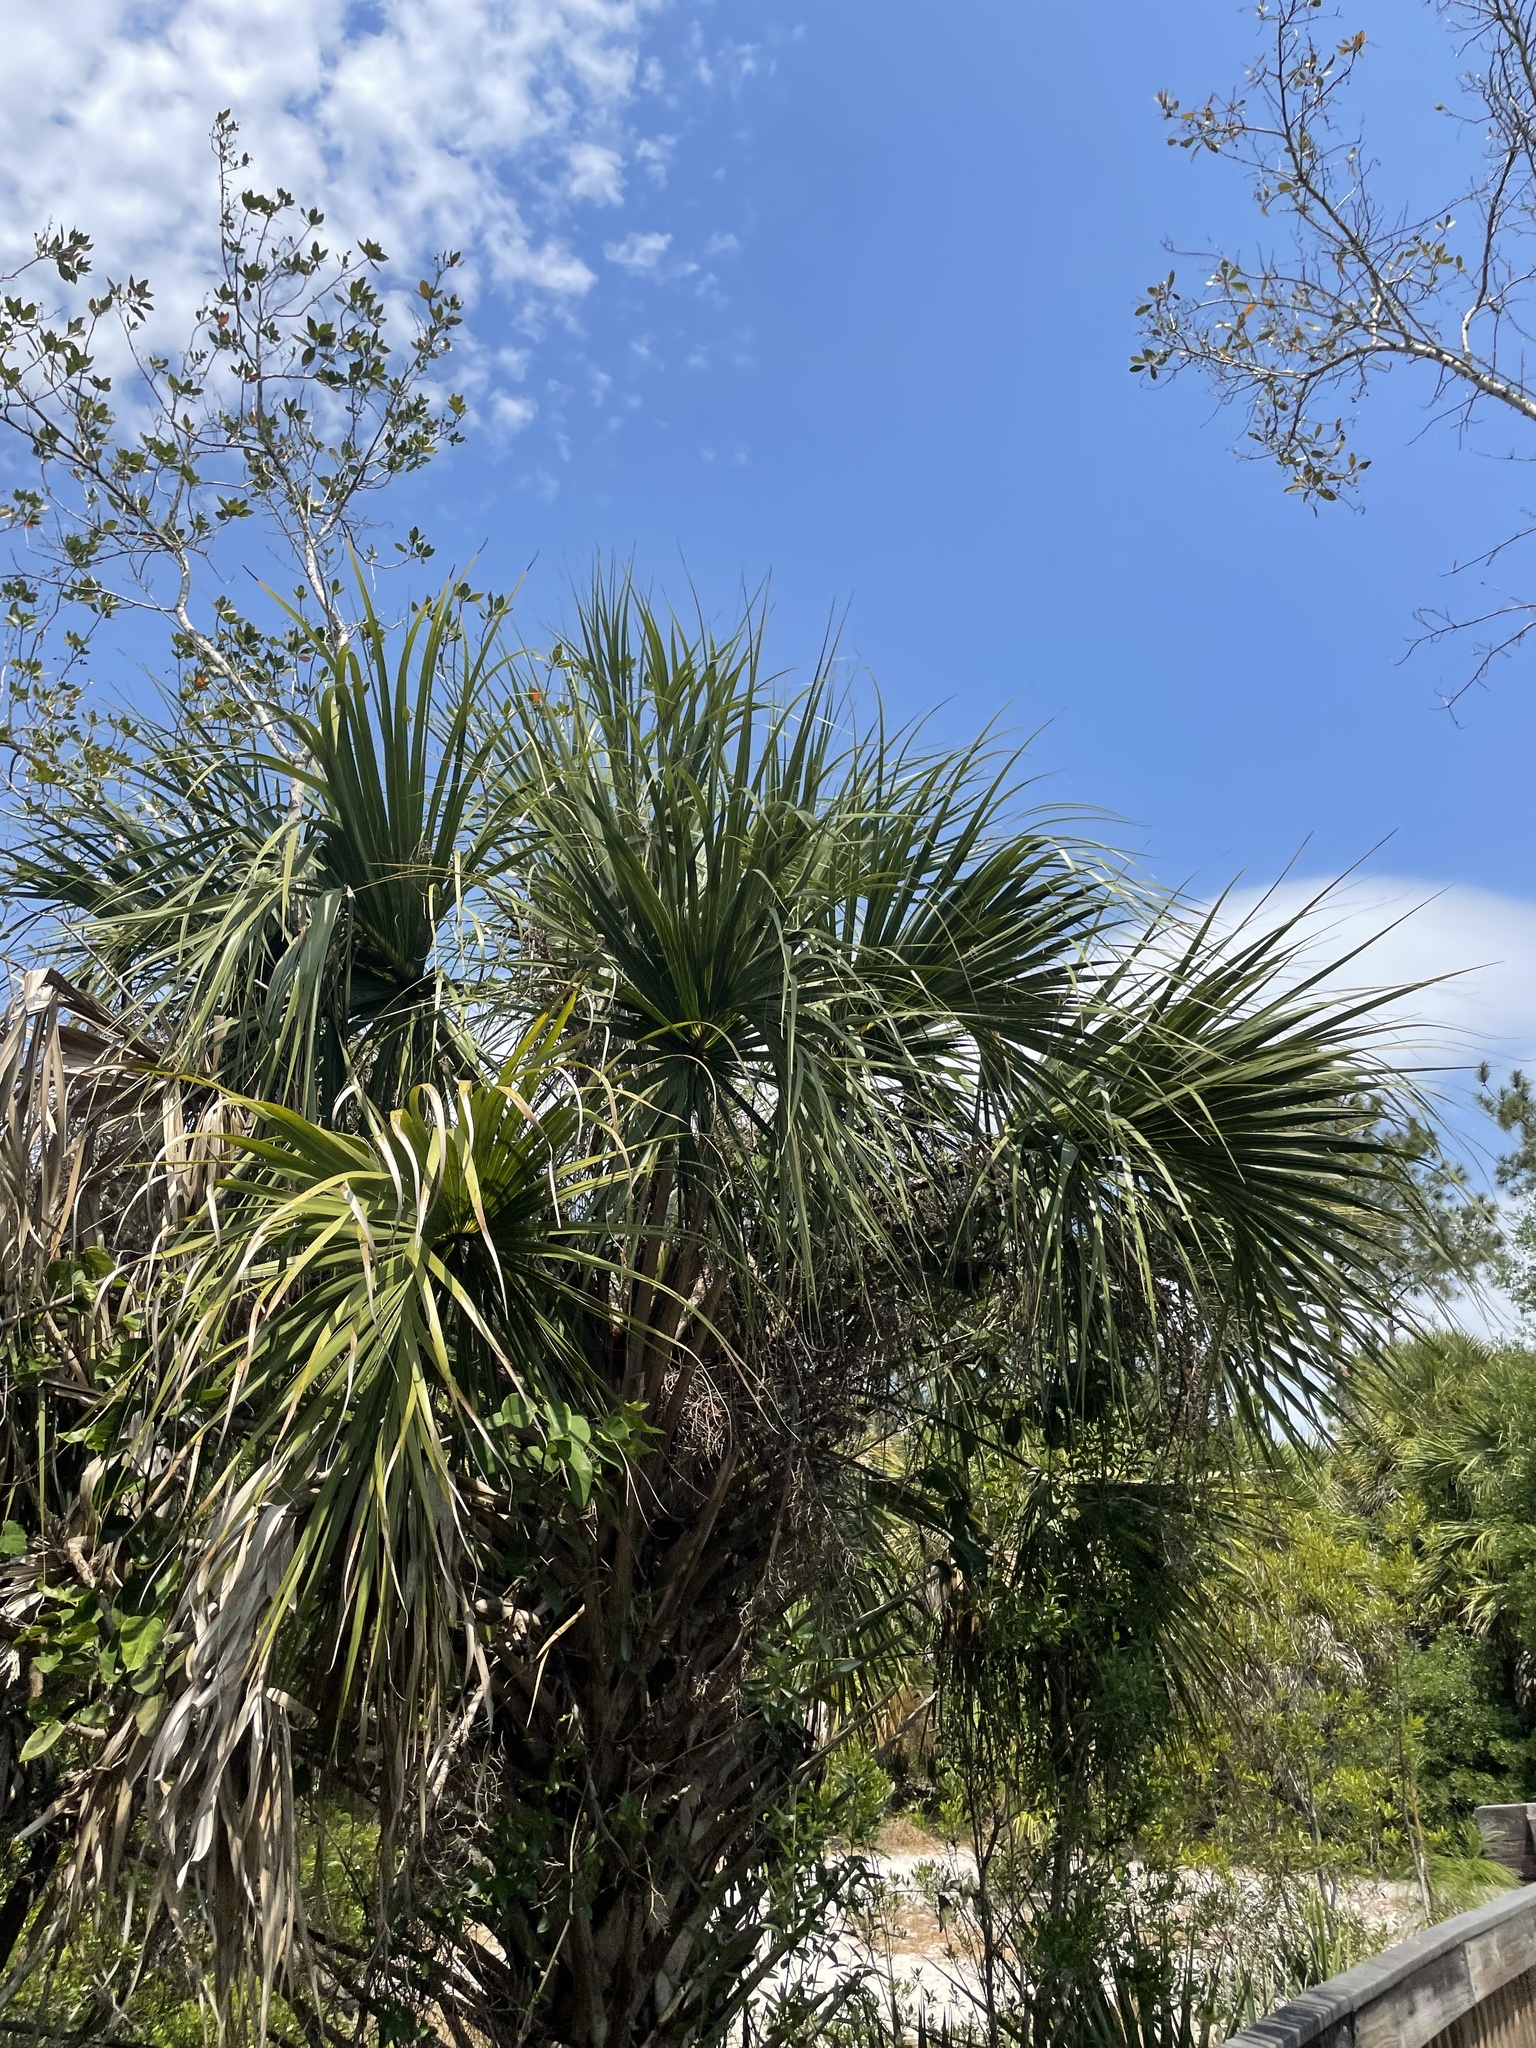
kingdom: Plantae
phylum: Tracheophyta
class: Liliopsida
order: Arecales
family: Arecaceae
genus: Sabal
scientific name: Sabal palmetto
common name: Blue palmetto
